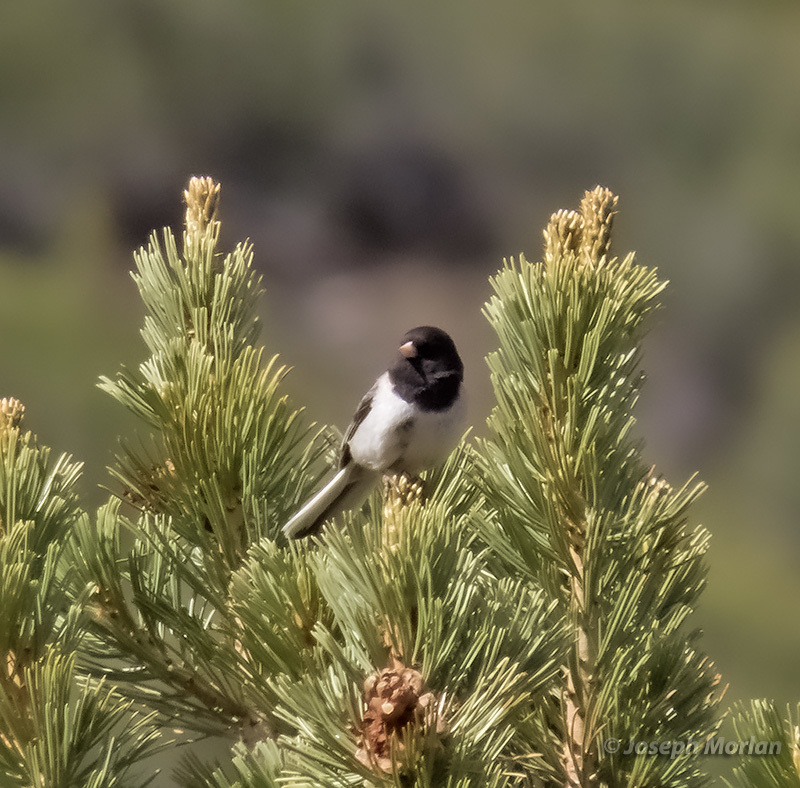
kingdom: Animalia
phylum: Chordata
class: Aves
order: Passeriformes
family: Passerellidae
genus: Junco
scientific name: Junco hyemalis
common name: Dark-eyed junco
